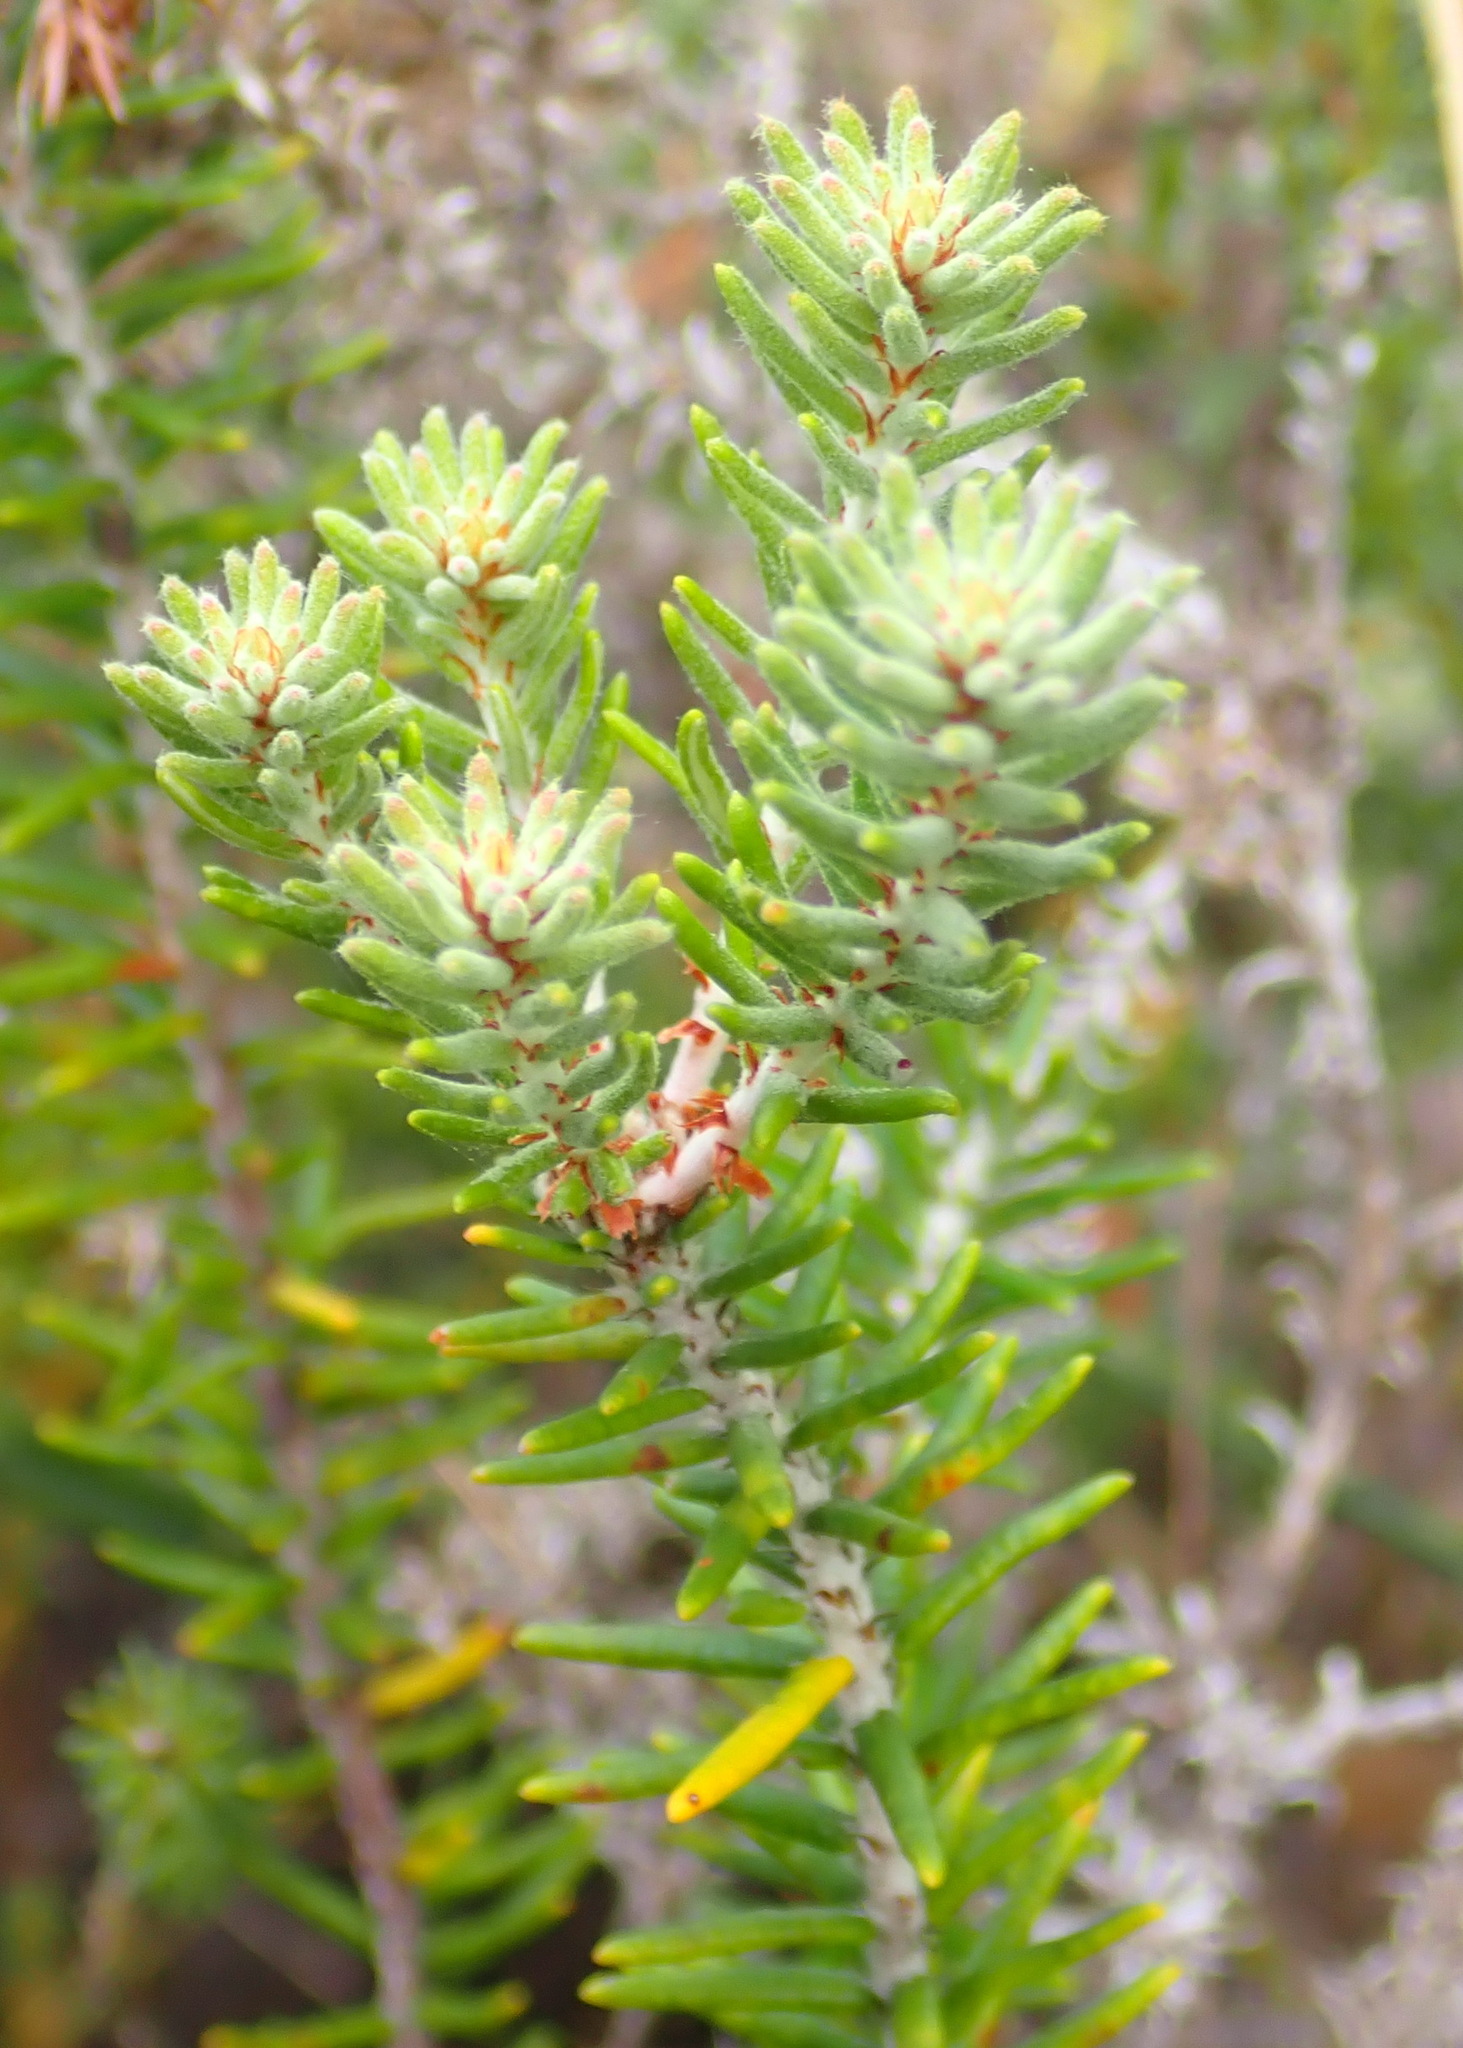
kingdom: Plantae
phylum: Tracheophyta
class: Magnoliopsida
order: Rosales
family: Rhamnaceae
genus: Phylica
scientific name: Phylica litoralis
